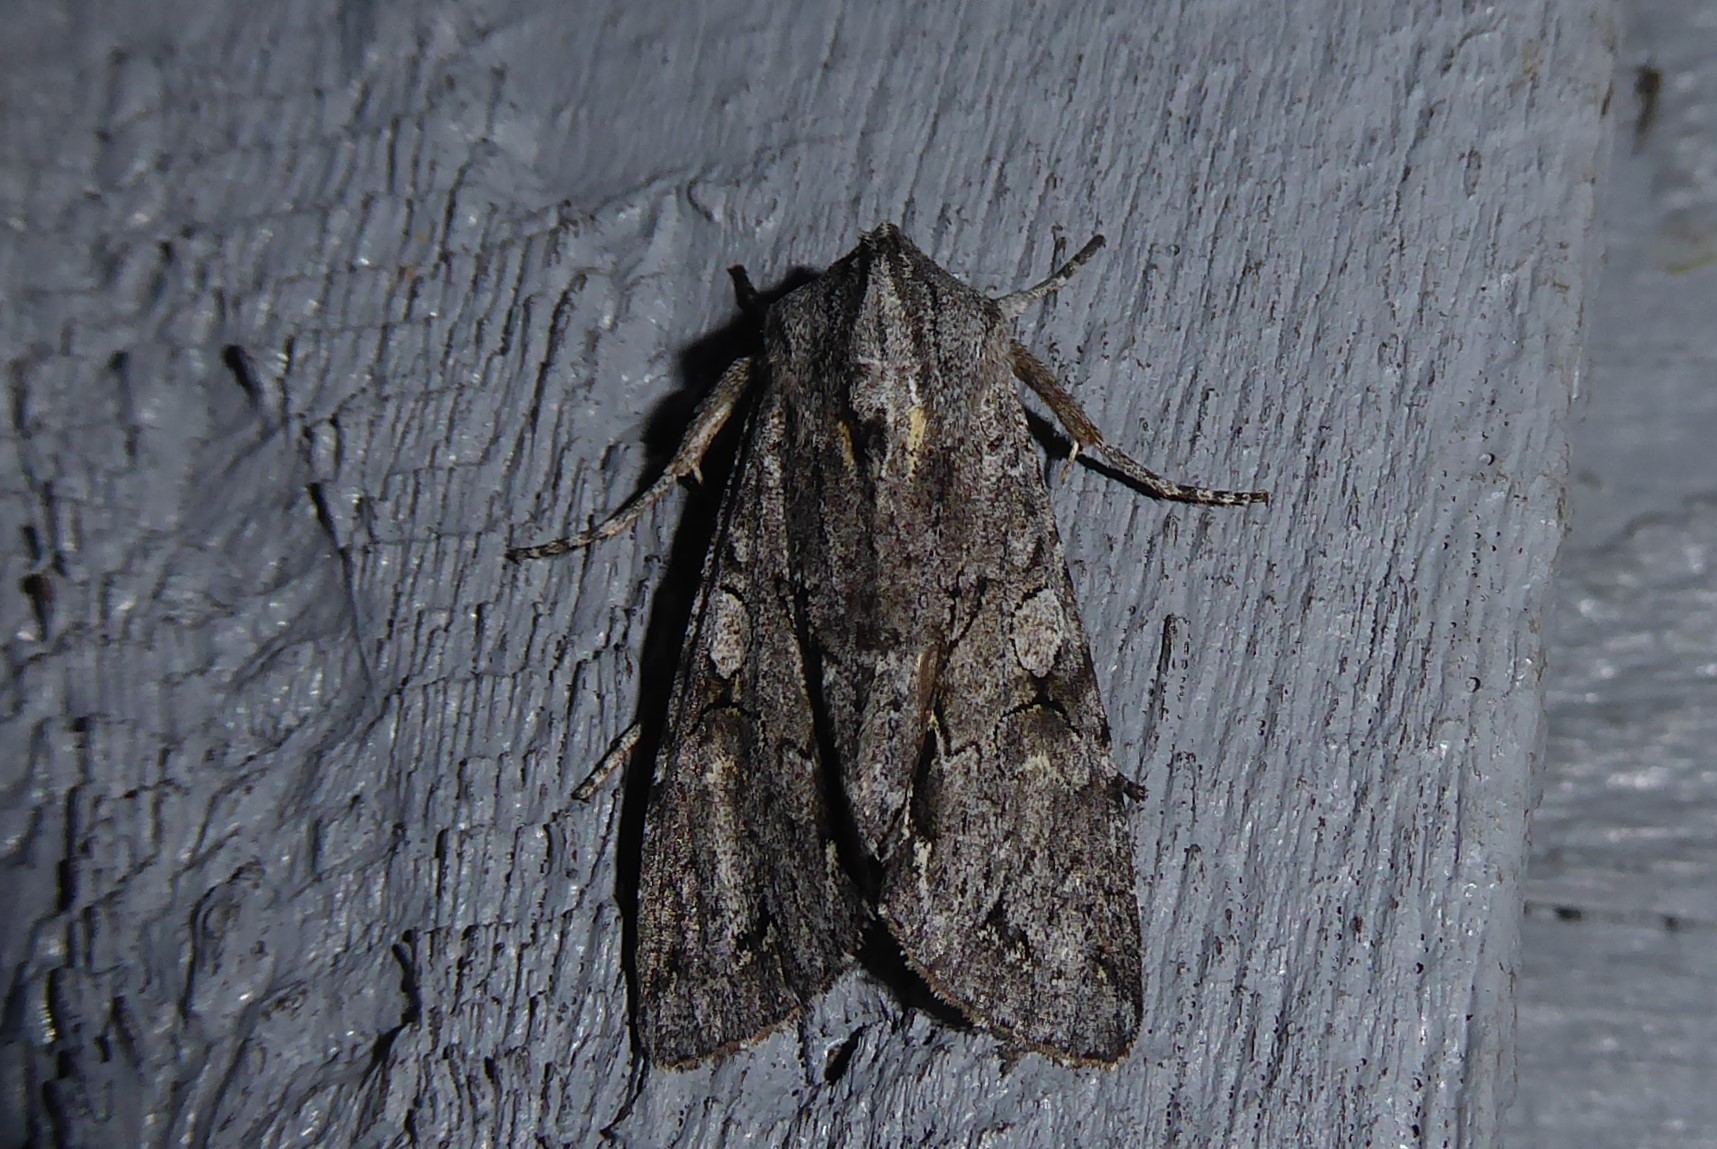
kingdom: Animalia
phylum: Arthropoda
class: Insecta
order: Lepidoptera
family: Noctuidae
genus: Ichneutica
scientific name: Ichneutica
